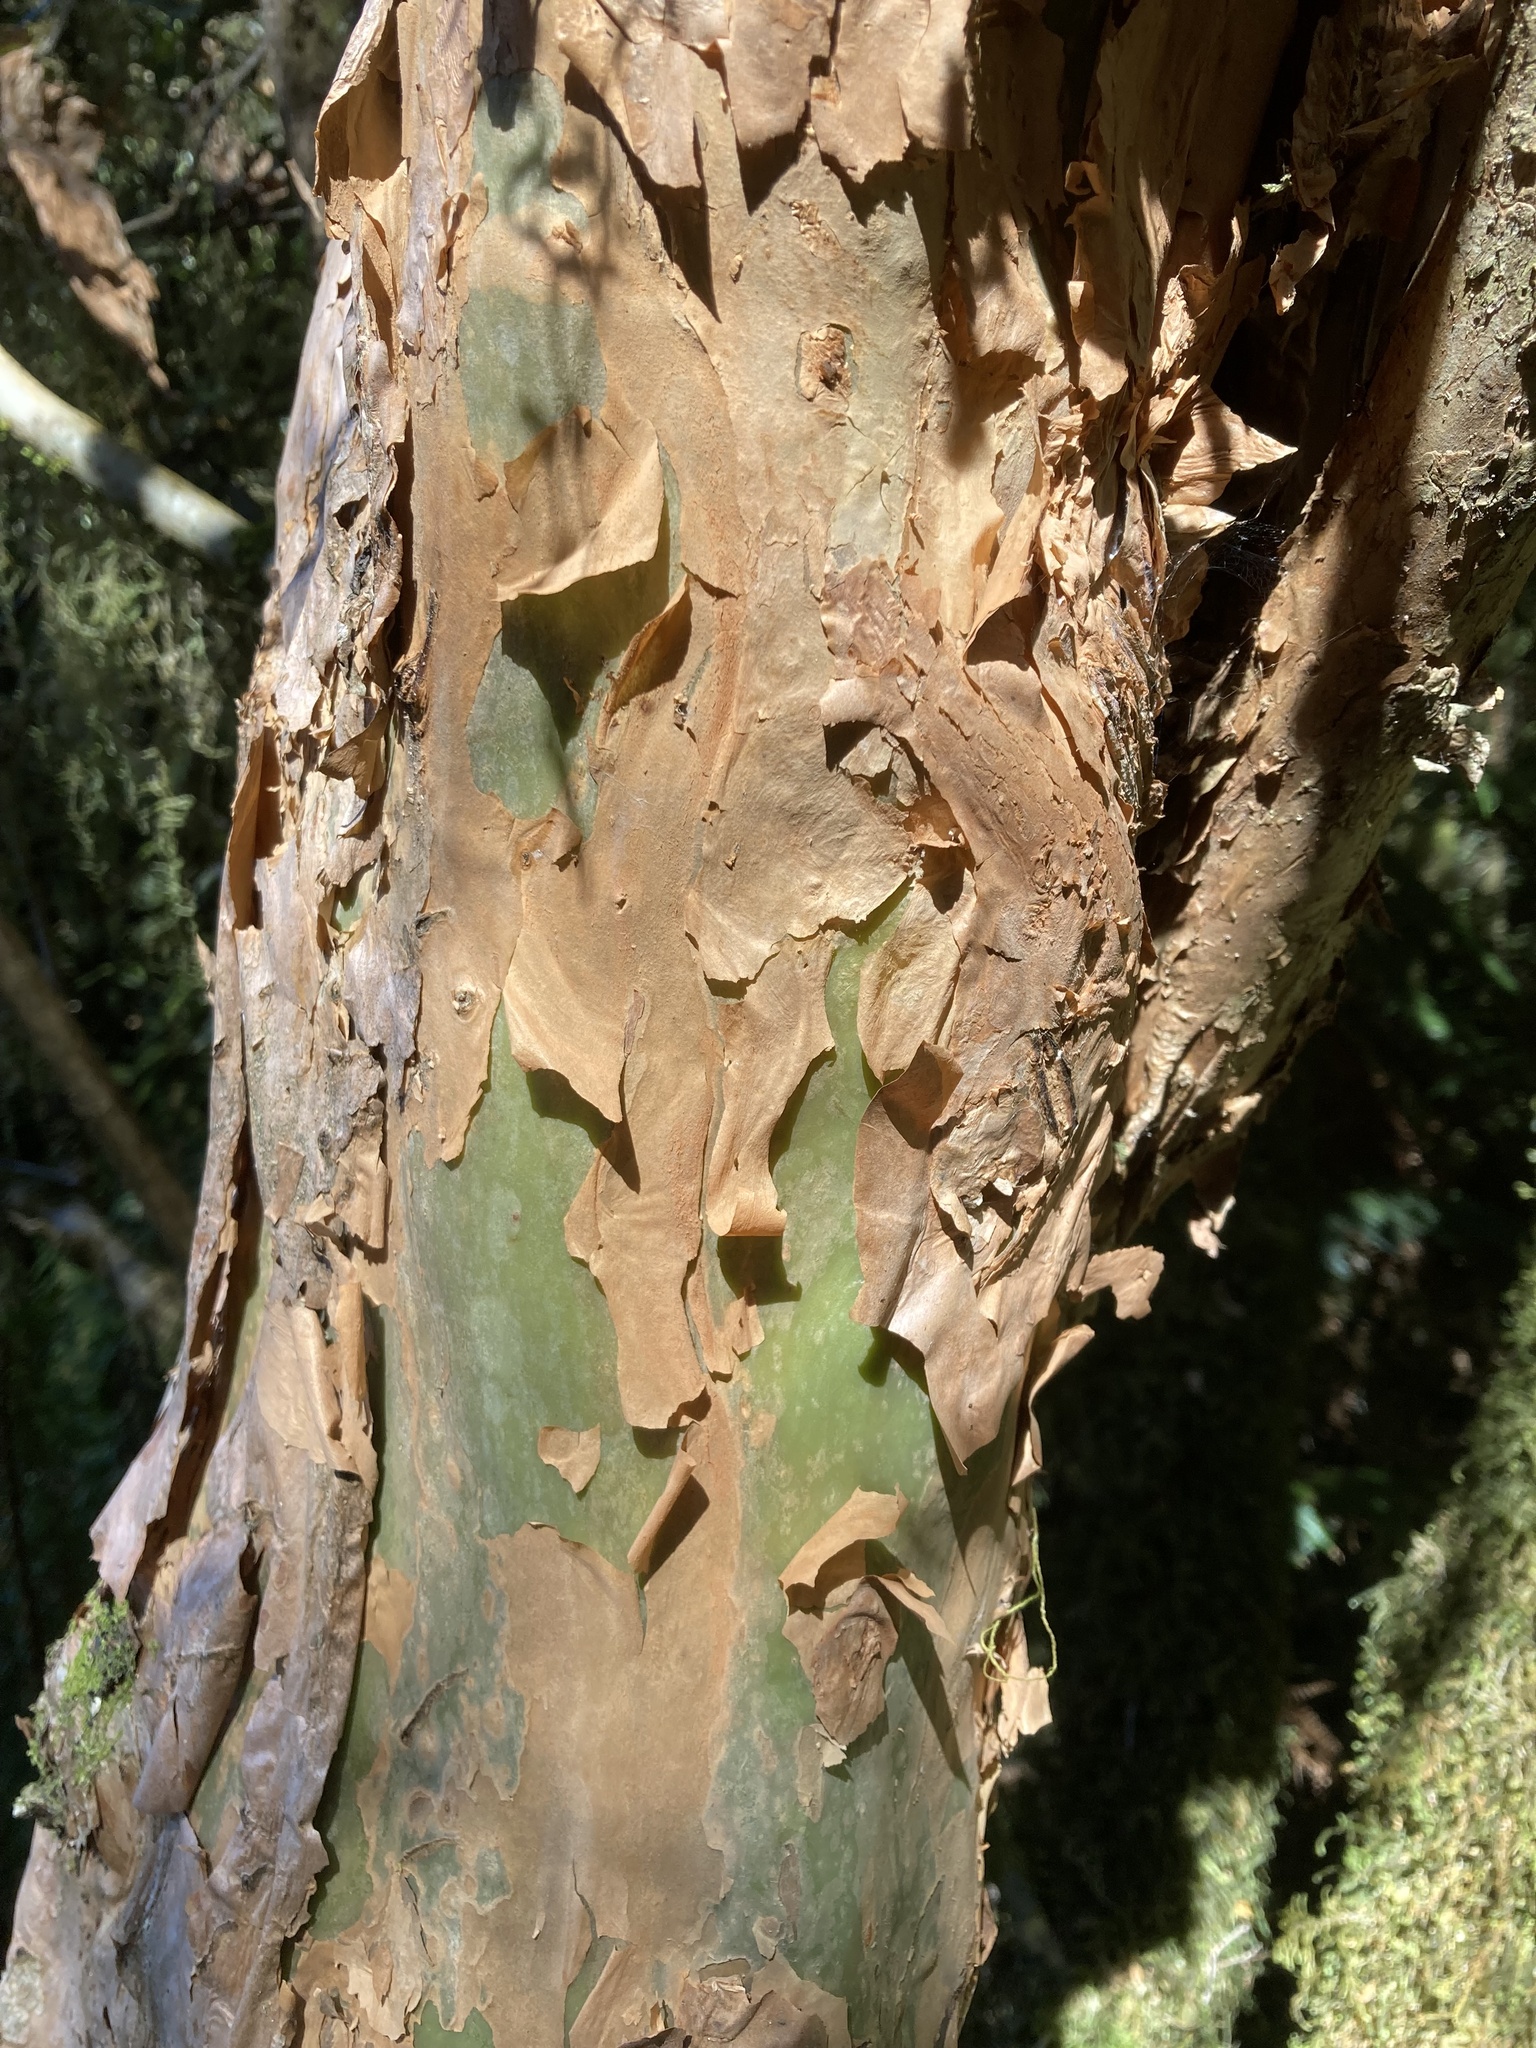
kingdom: Plantae
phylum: Tracheophyta
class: Magnoliopsida
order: Myrtales
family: Onagraceae
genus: Fuchsia
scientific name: Fuchsia excorticata
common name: Tree fuchsia
